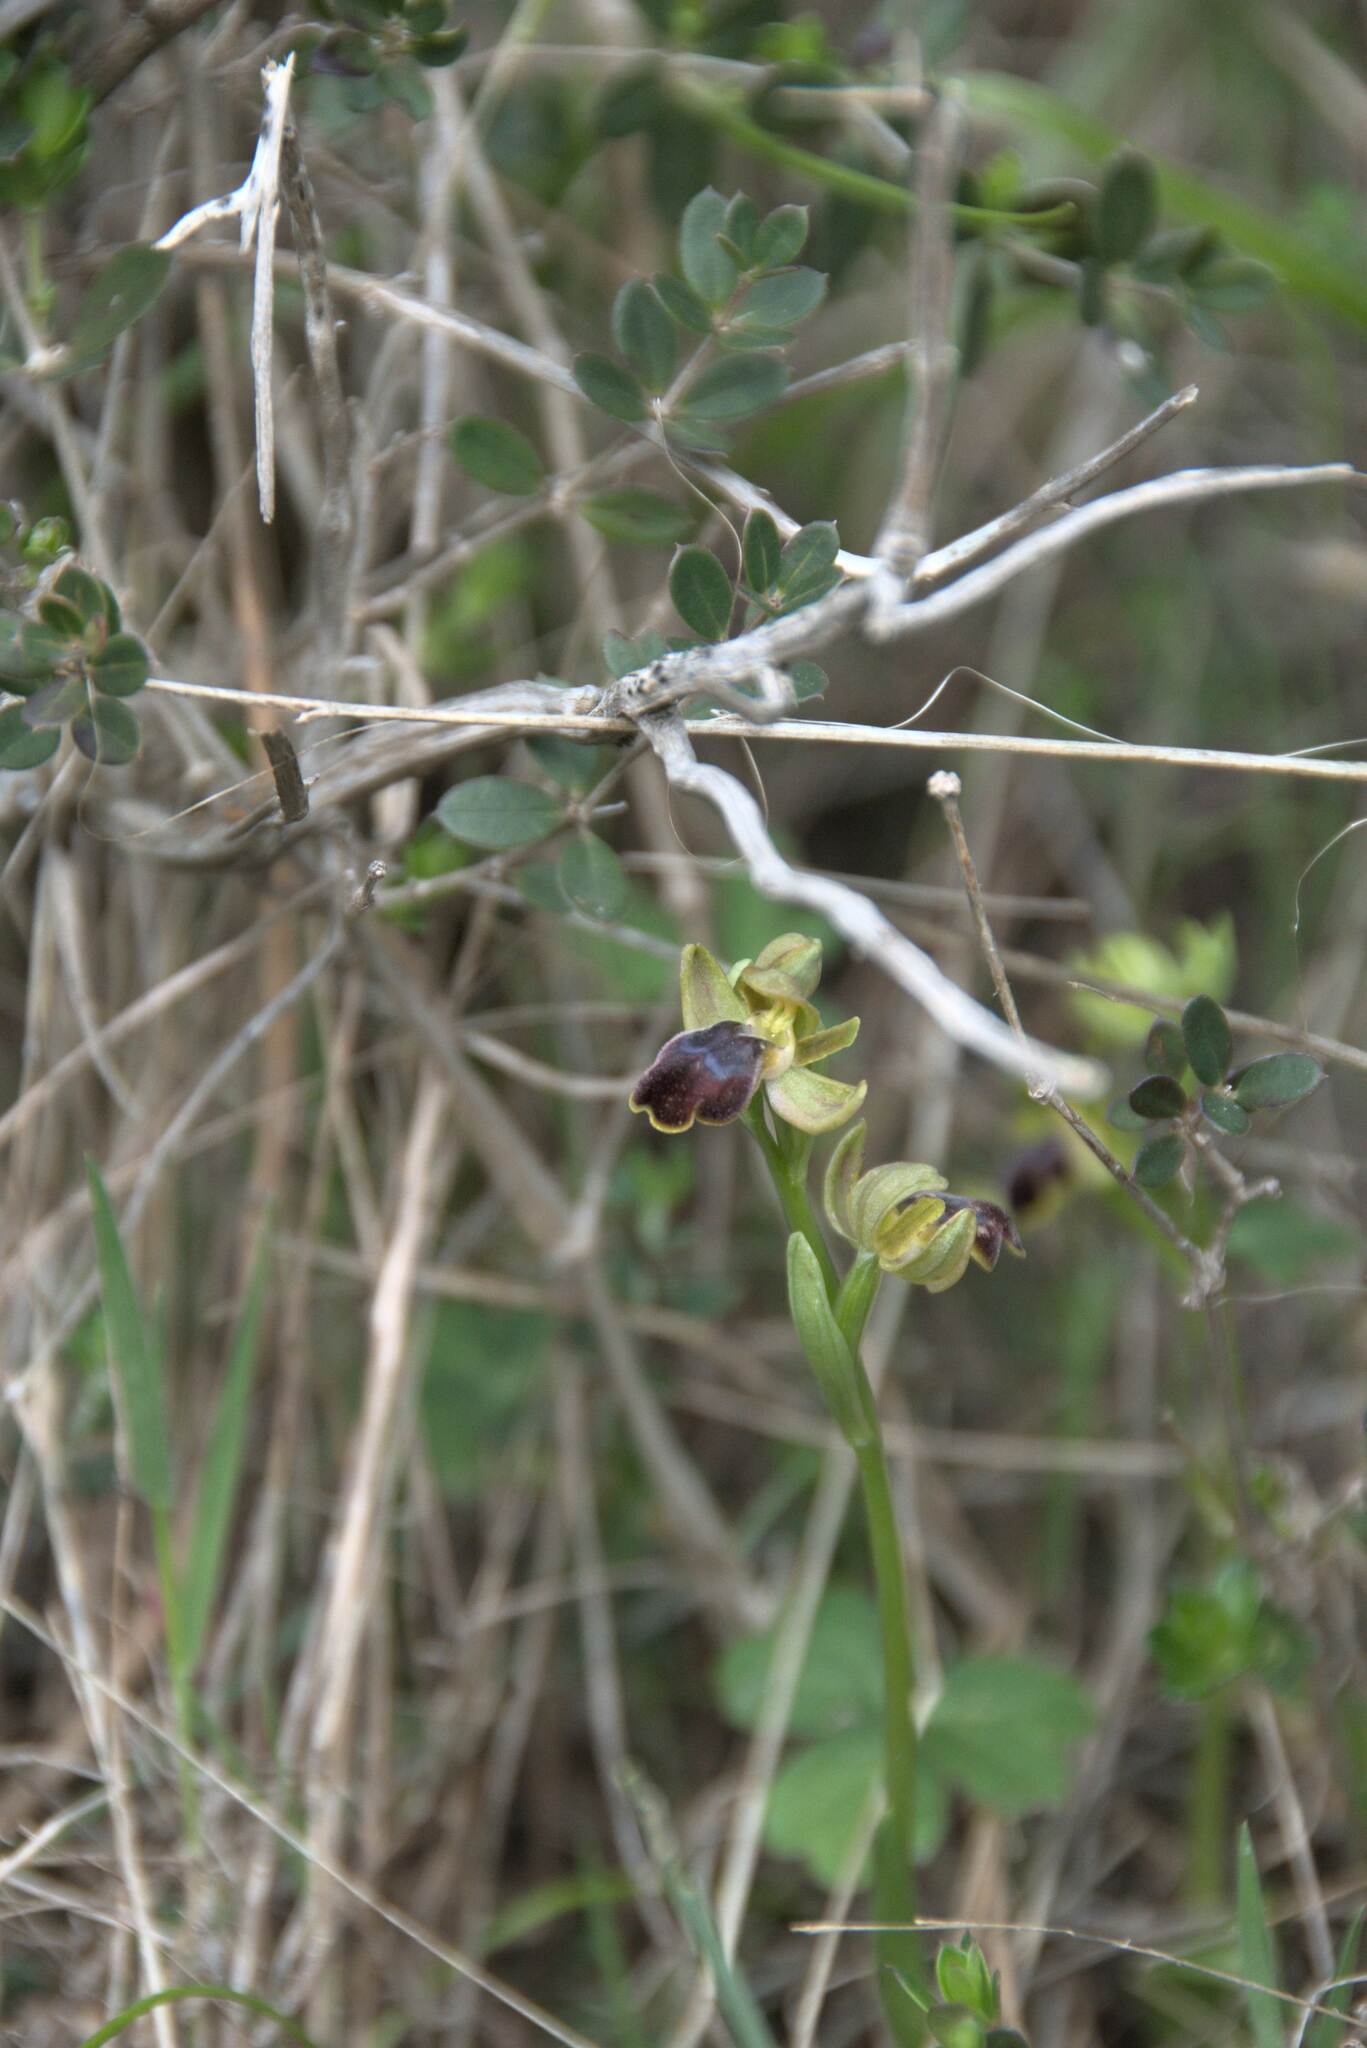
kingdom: Plantae
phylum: Tracheophyta
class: Liliopsida
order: Asparagales
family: Orchidaceae
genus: Ophrys
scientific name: Ophrys fusca
